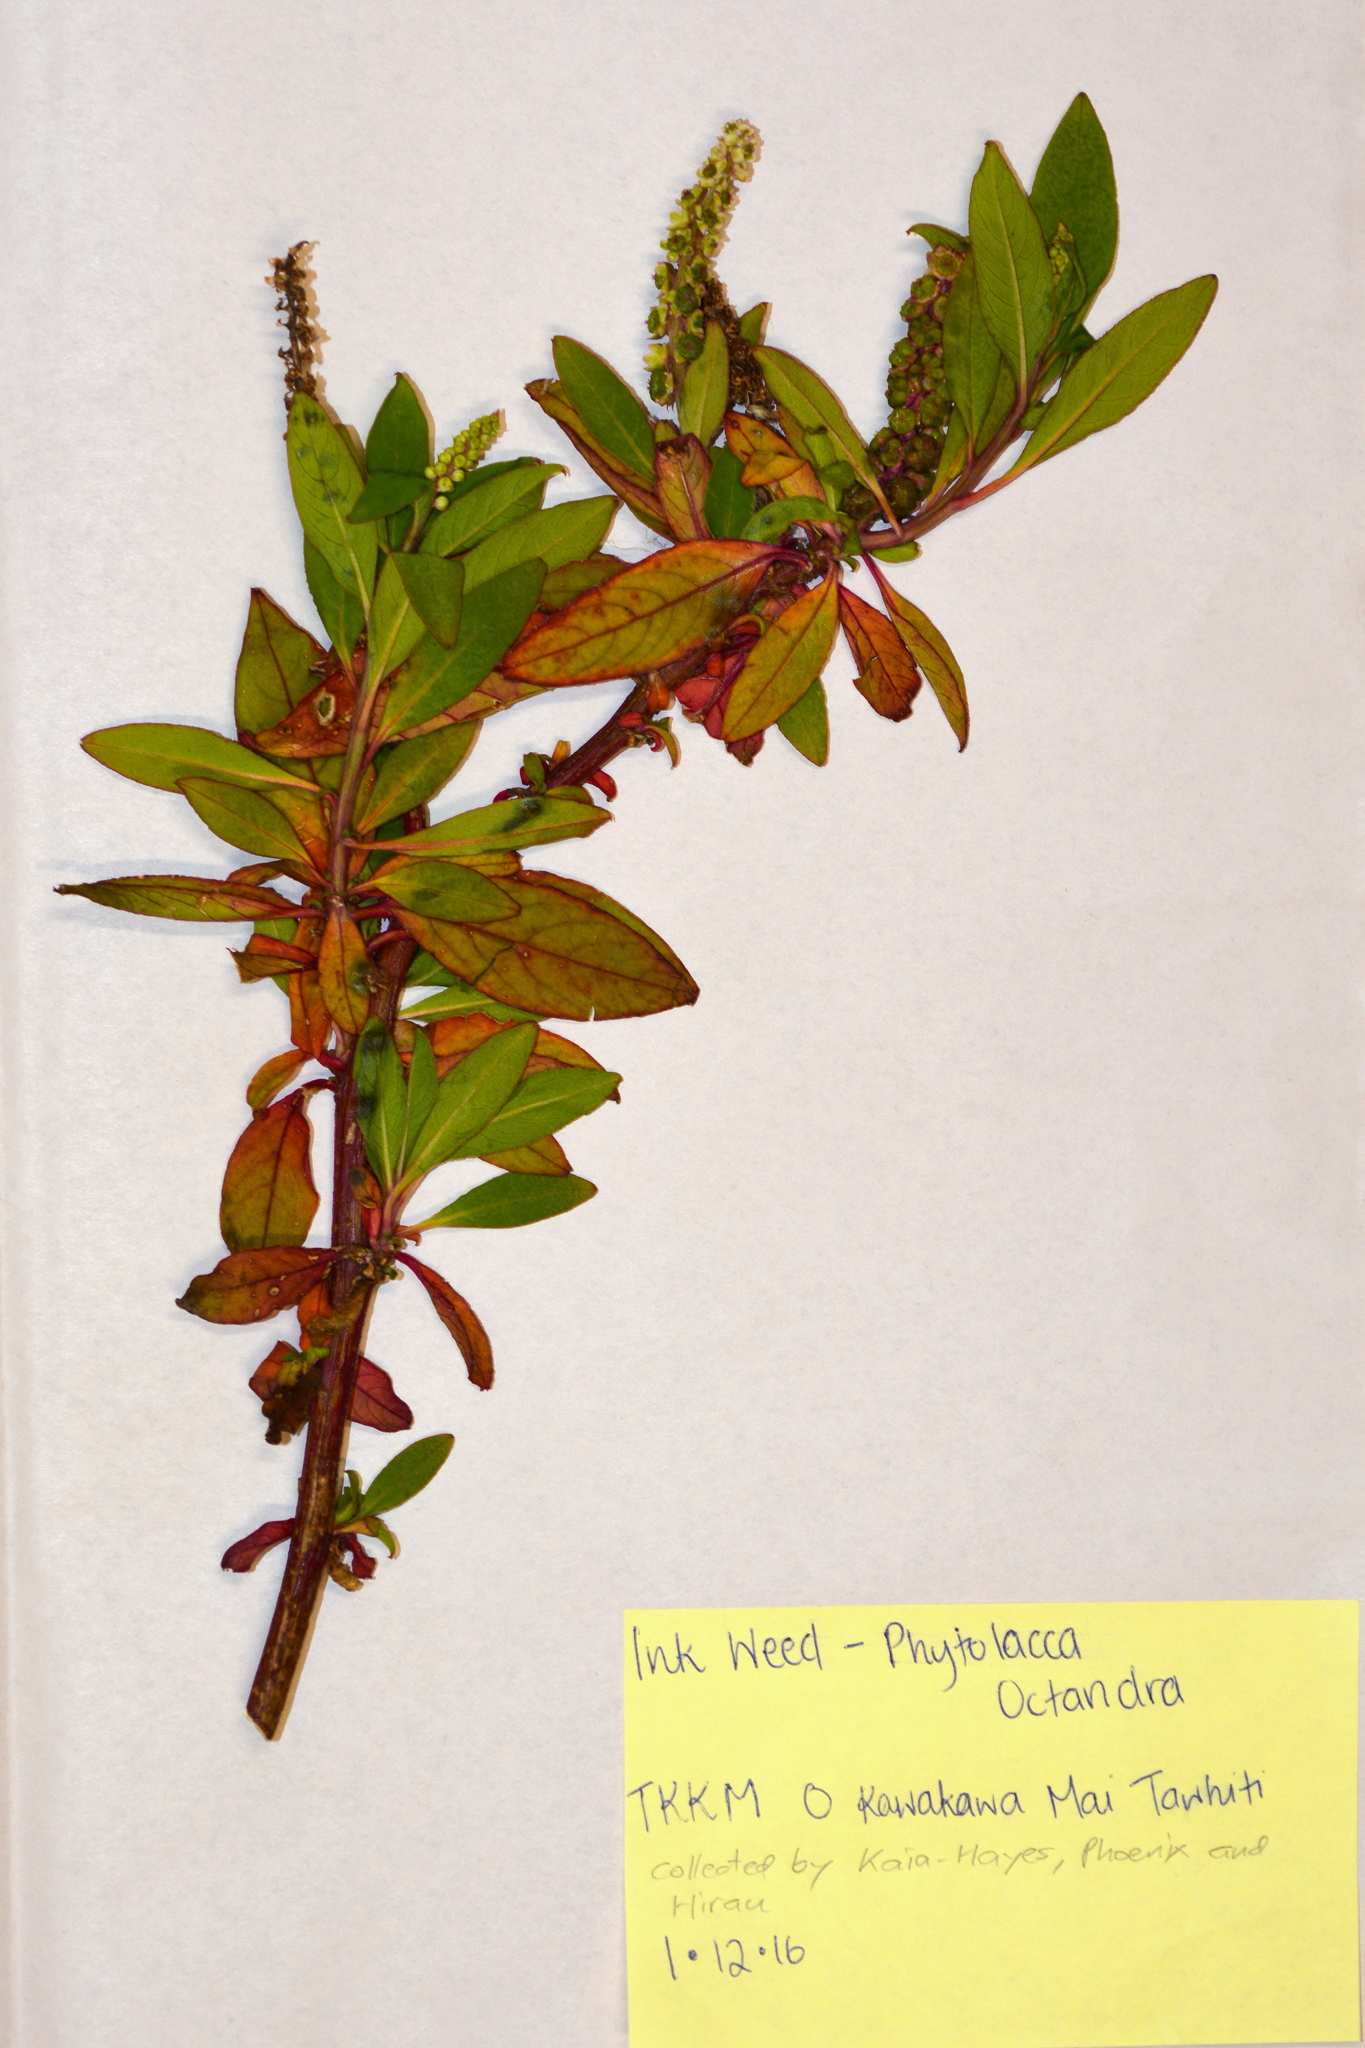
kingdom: Plantae
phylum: Tracheophyta
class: Magnoliopsida
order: Caryophyllales
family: Phytolaccaceae
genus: Phytolacca
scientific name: Phytolacca icosandra
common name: Button pokeweed
